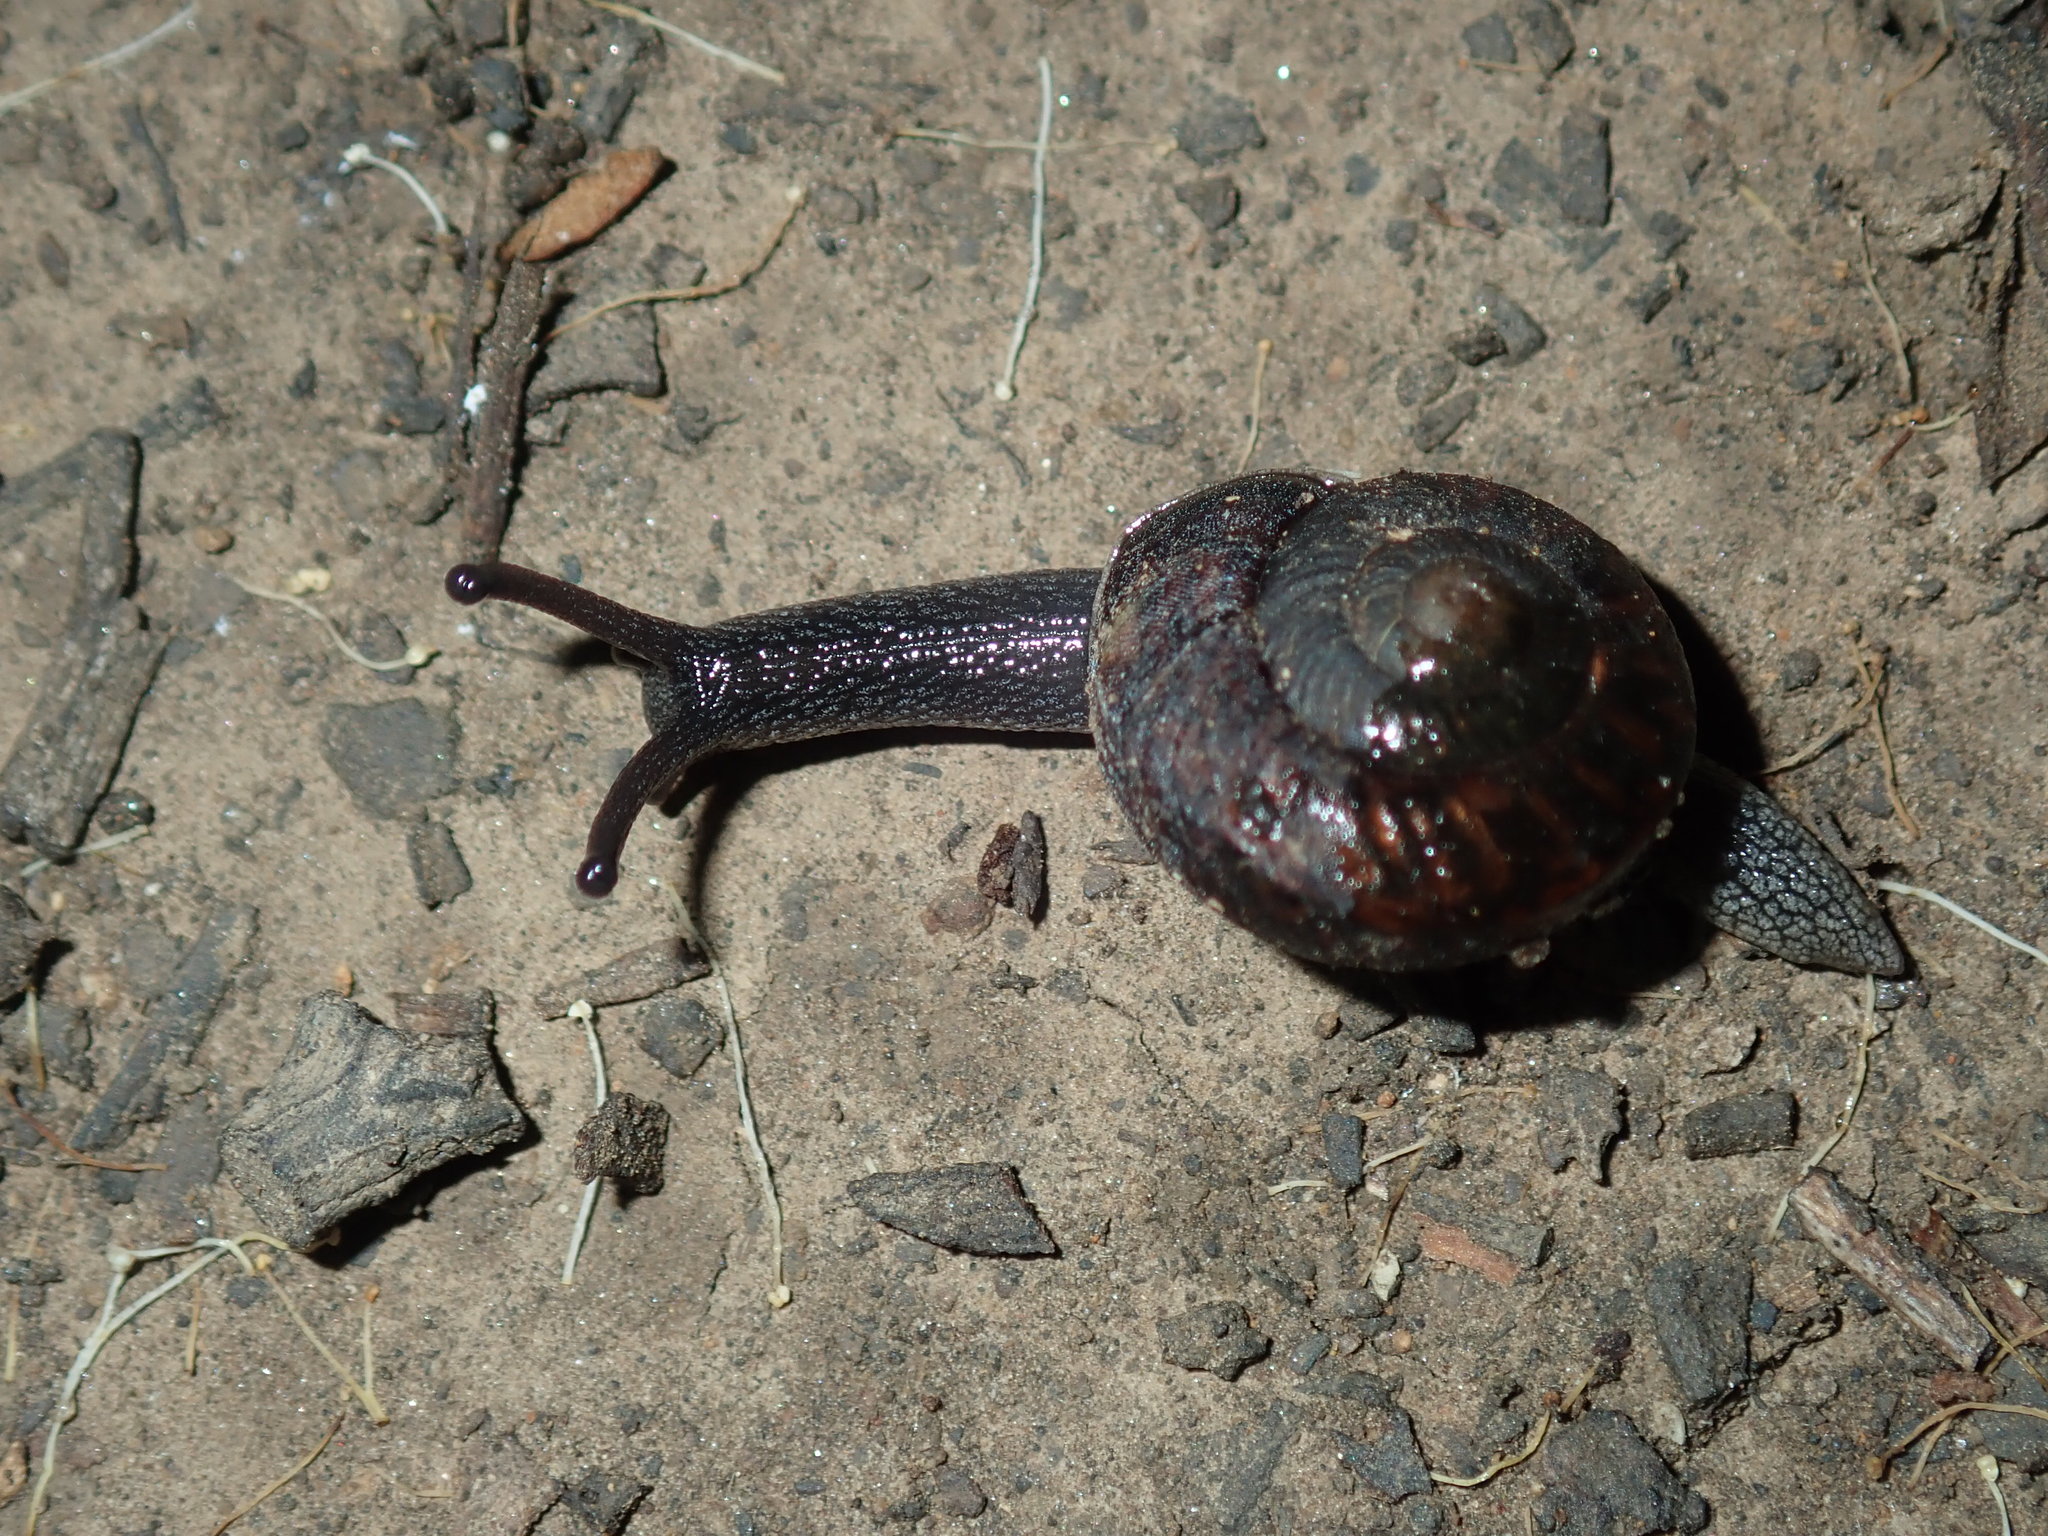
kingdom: Animalia
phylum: Mollusca
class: Gastropoda
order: Stylommatophora
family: Camaenidae
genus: Sauroconcha
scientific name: Sauroconcha sheai
